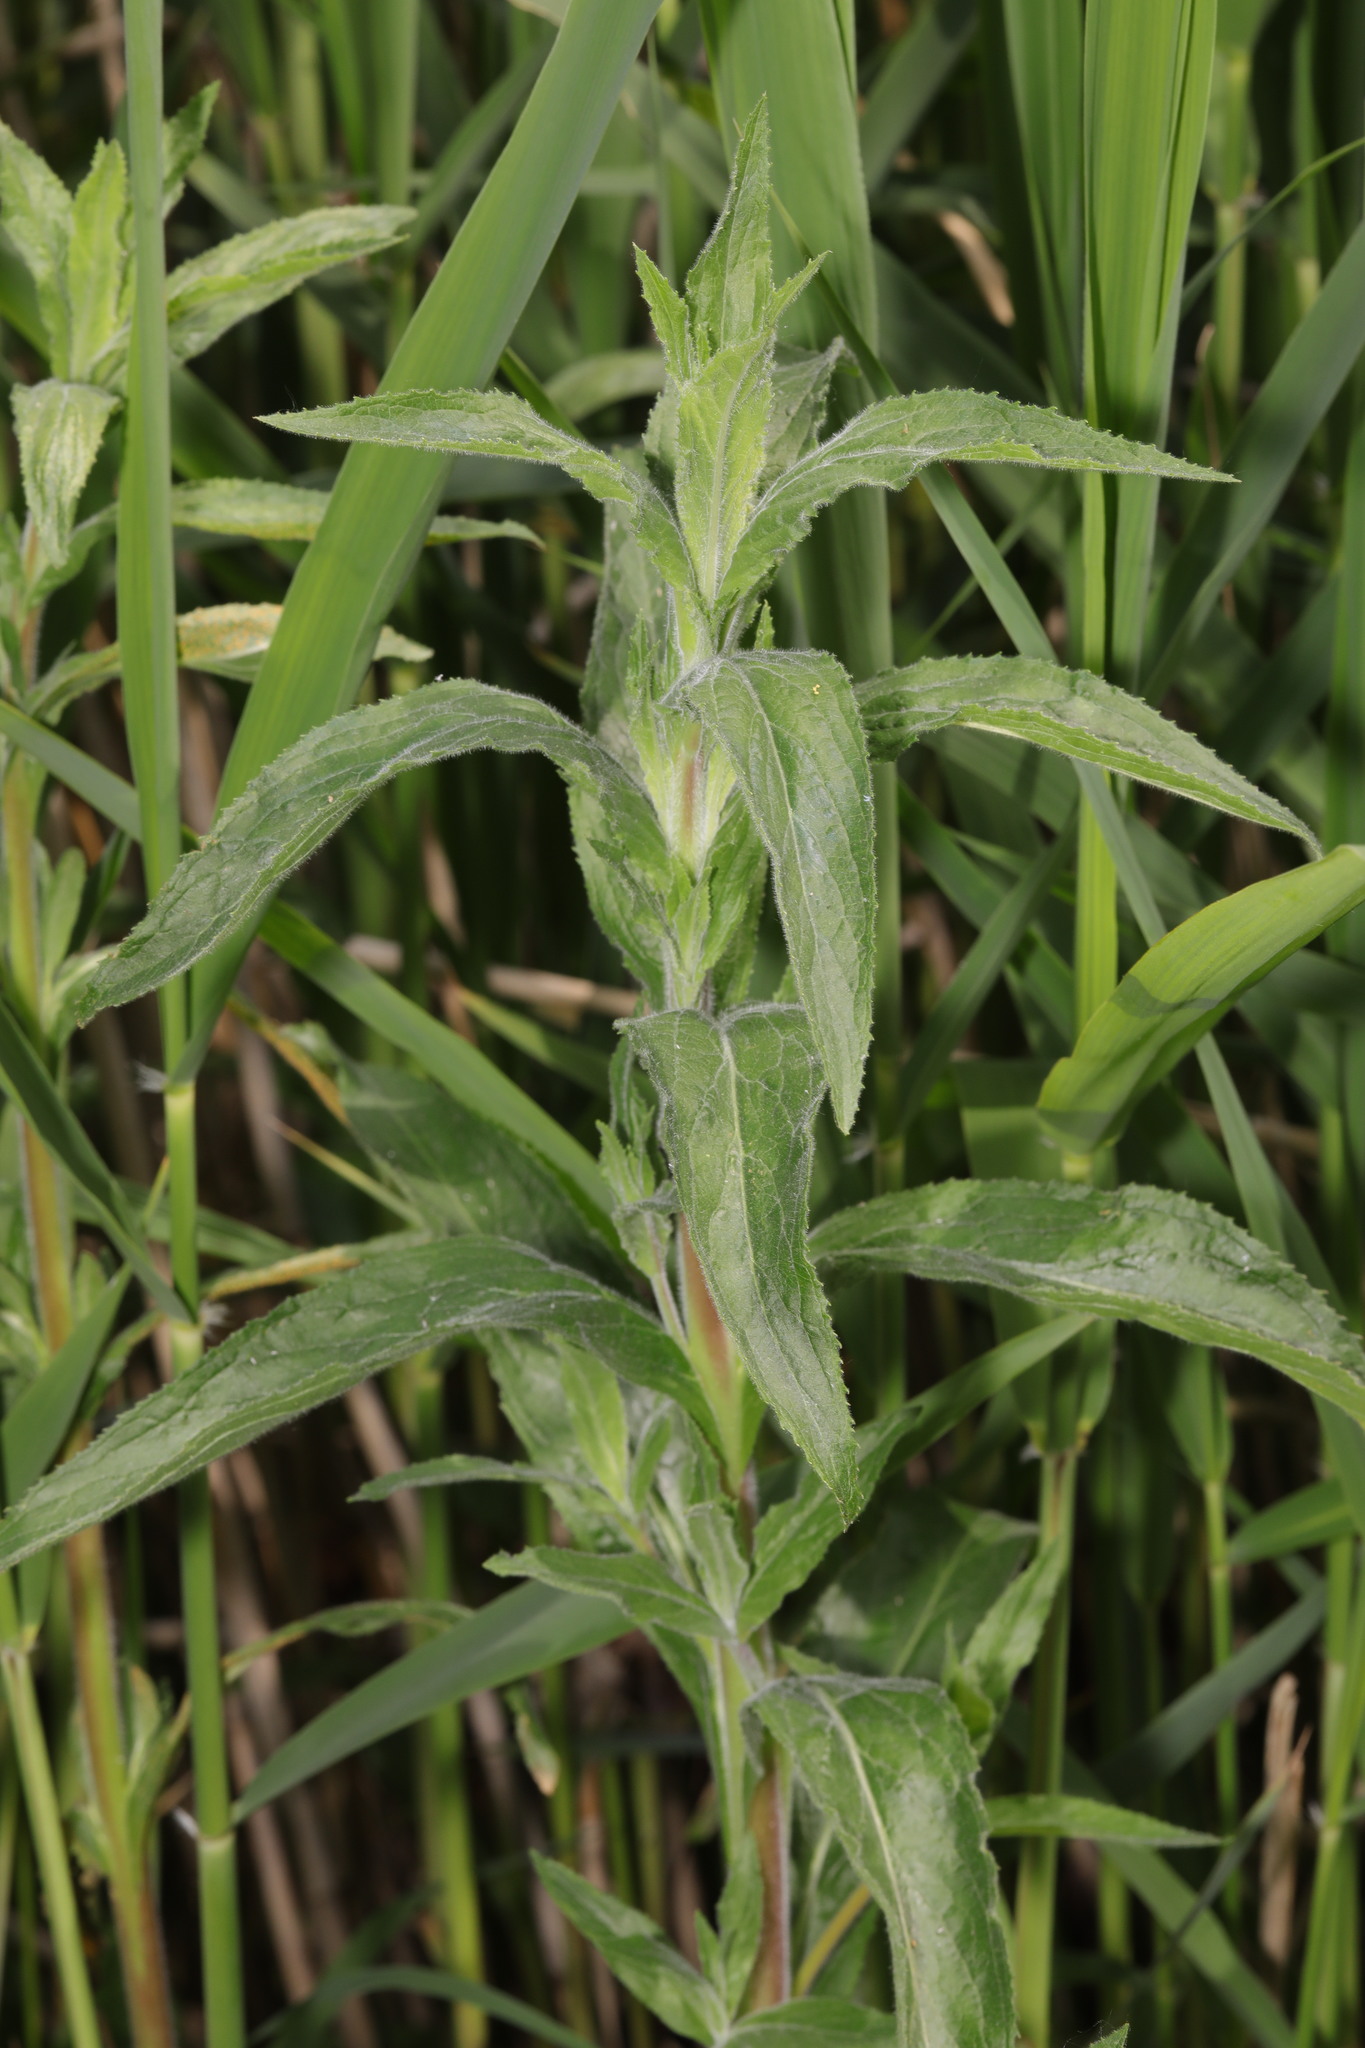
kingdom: Plantae
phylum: Tracheophyta
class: Magnoliopsida
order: Myrtales
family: Onagraceae
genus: Epilobium
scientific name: Epilobium hirsutum
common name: Great willowherb
